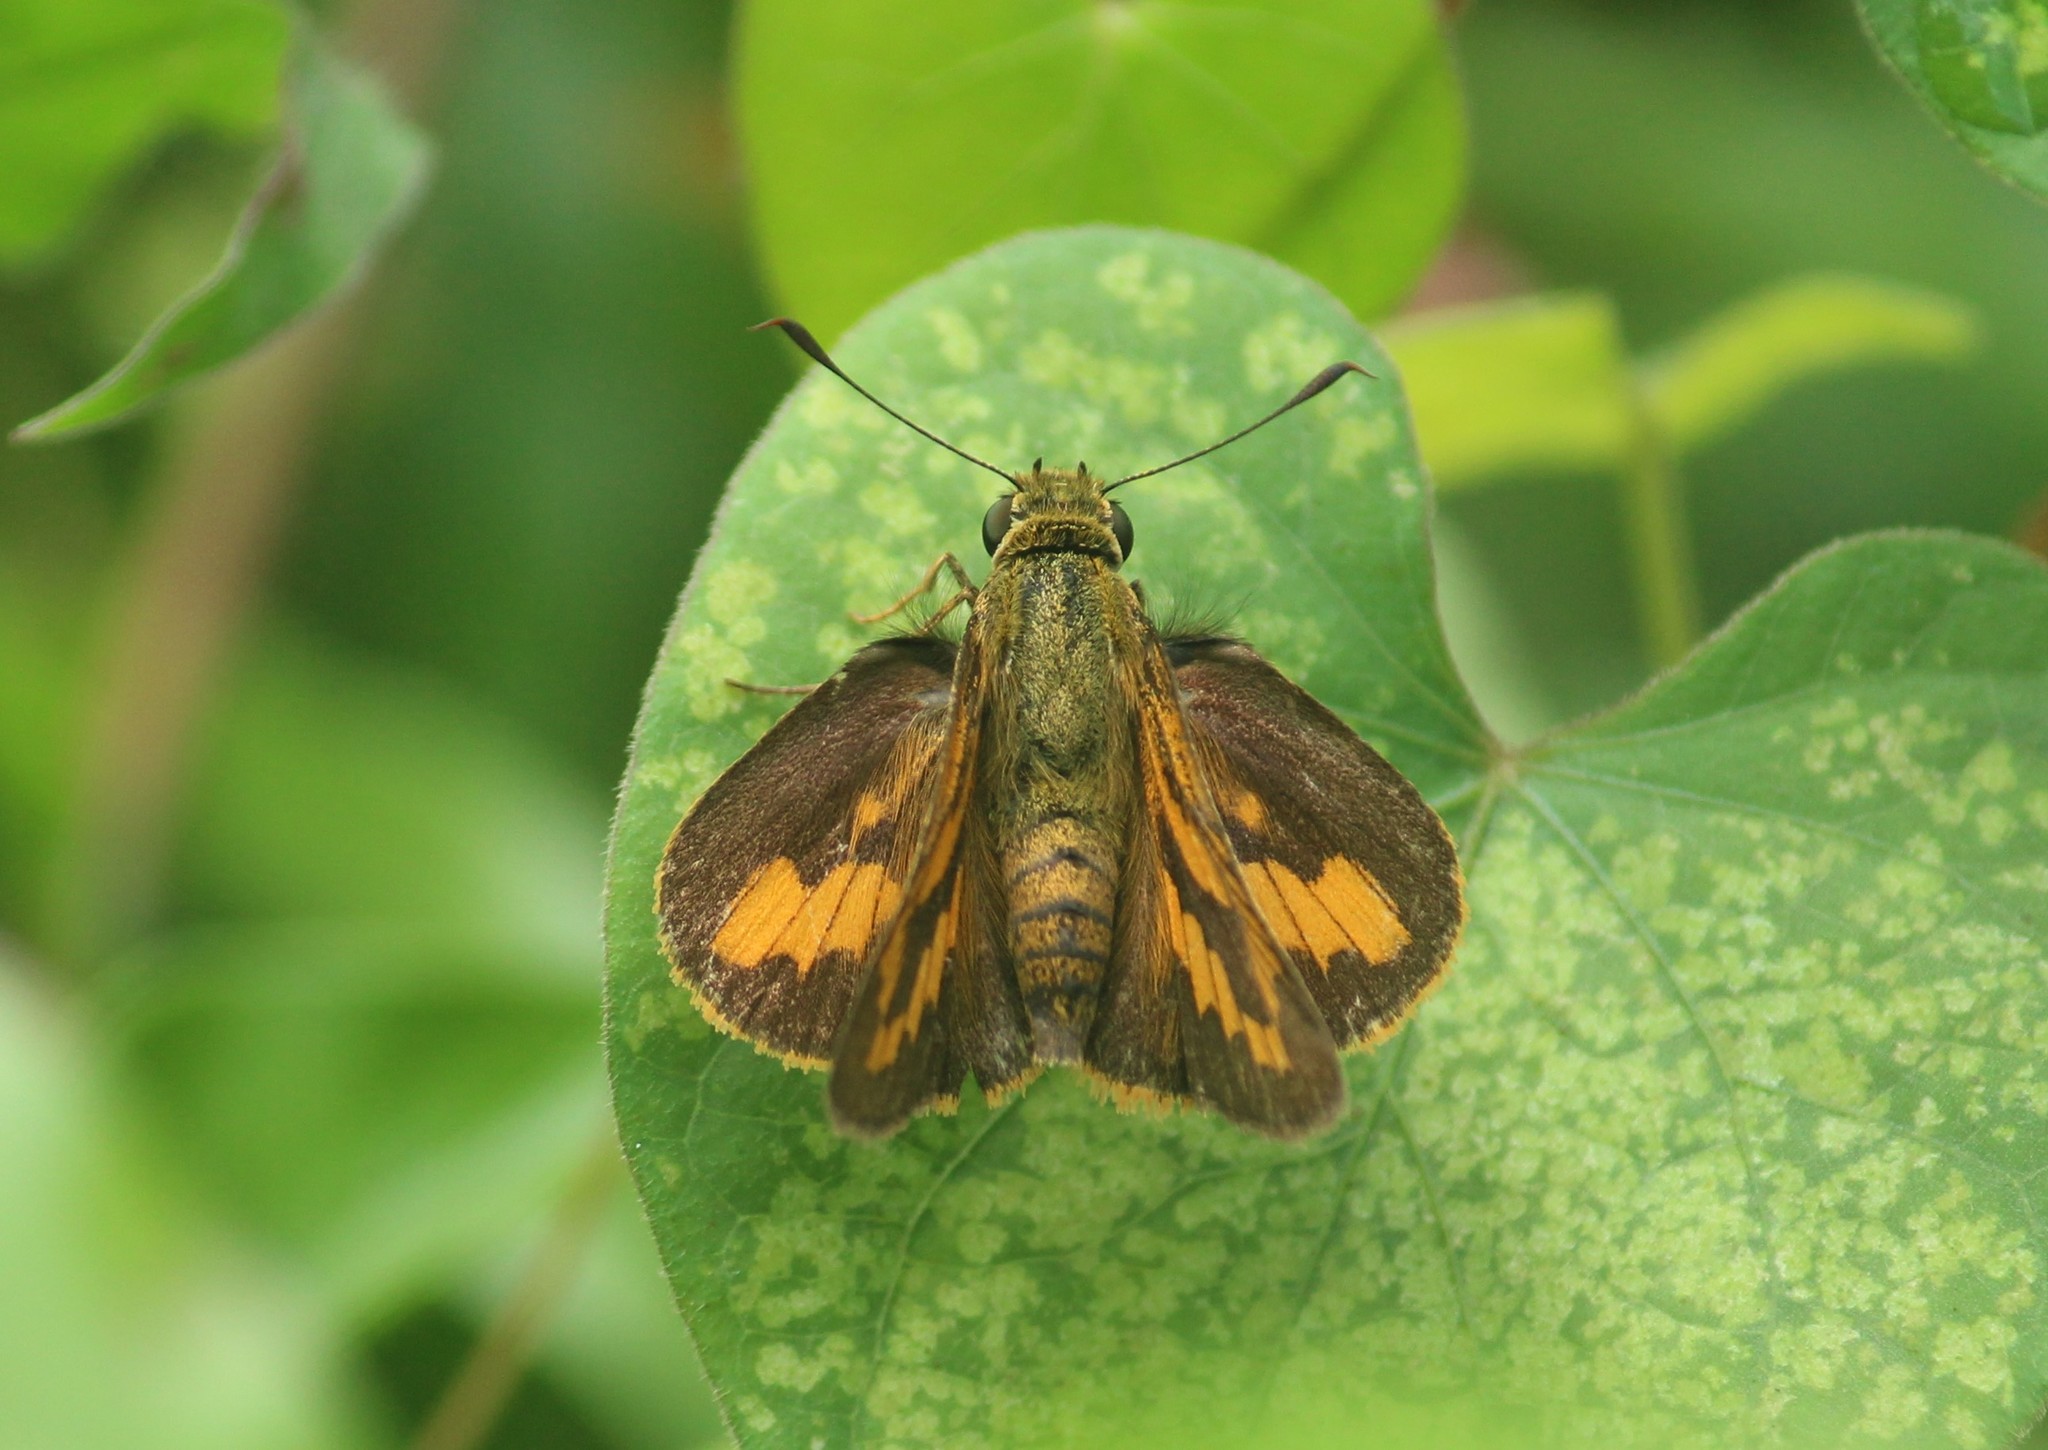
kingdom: Animalia
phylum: Arthropoda
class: Insecta
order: Lepidoptera
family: Hesperiidae
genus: Telicota
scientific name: Telicota bambusae
